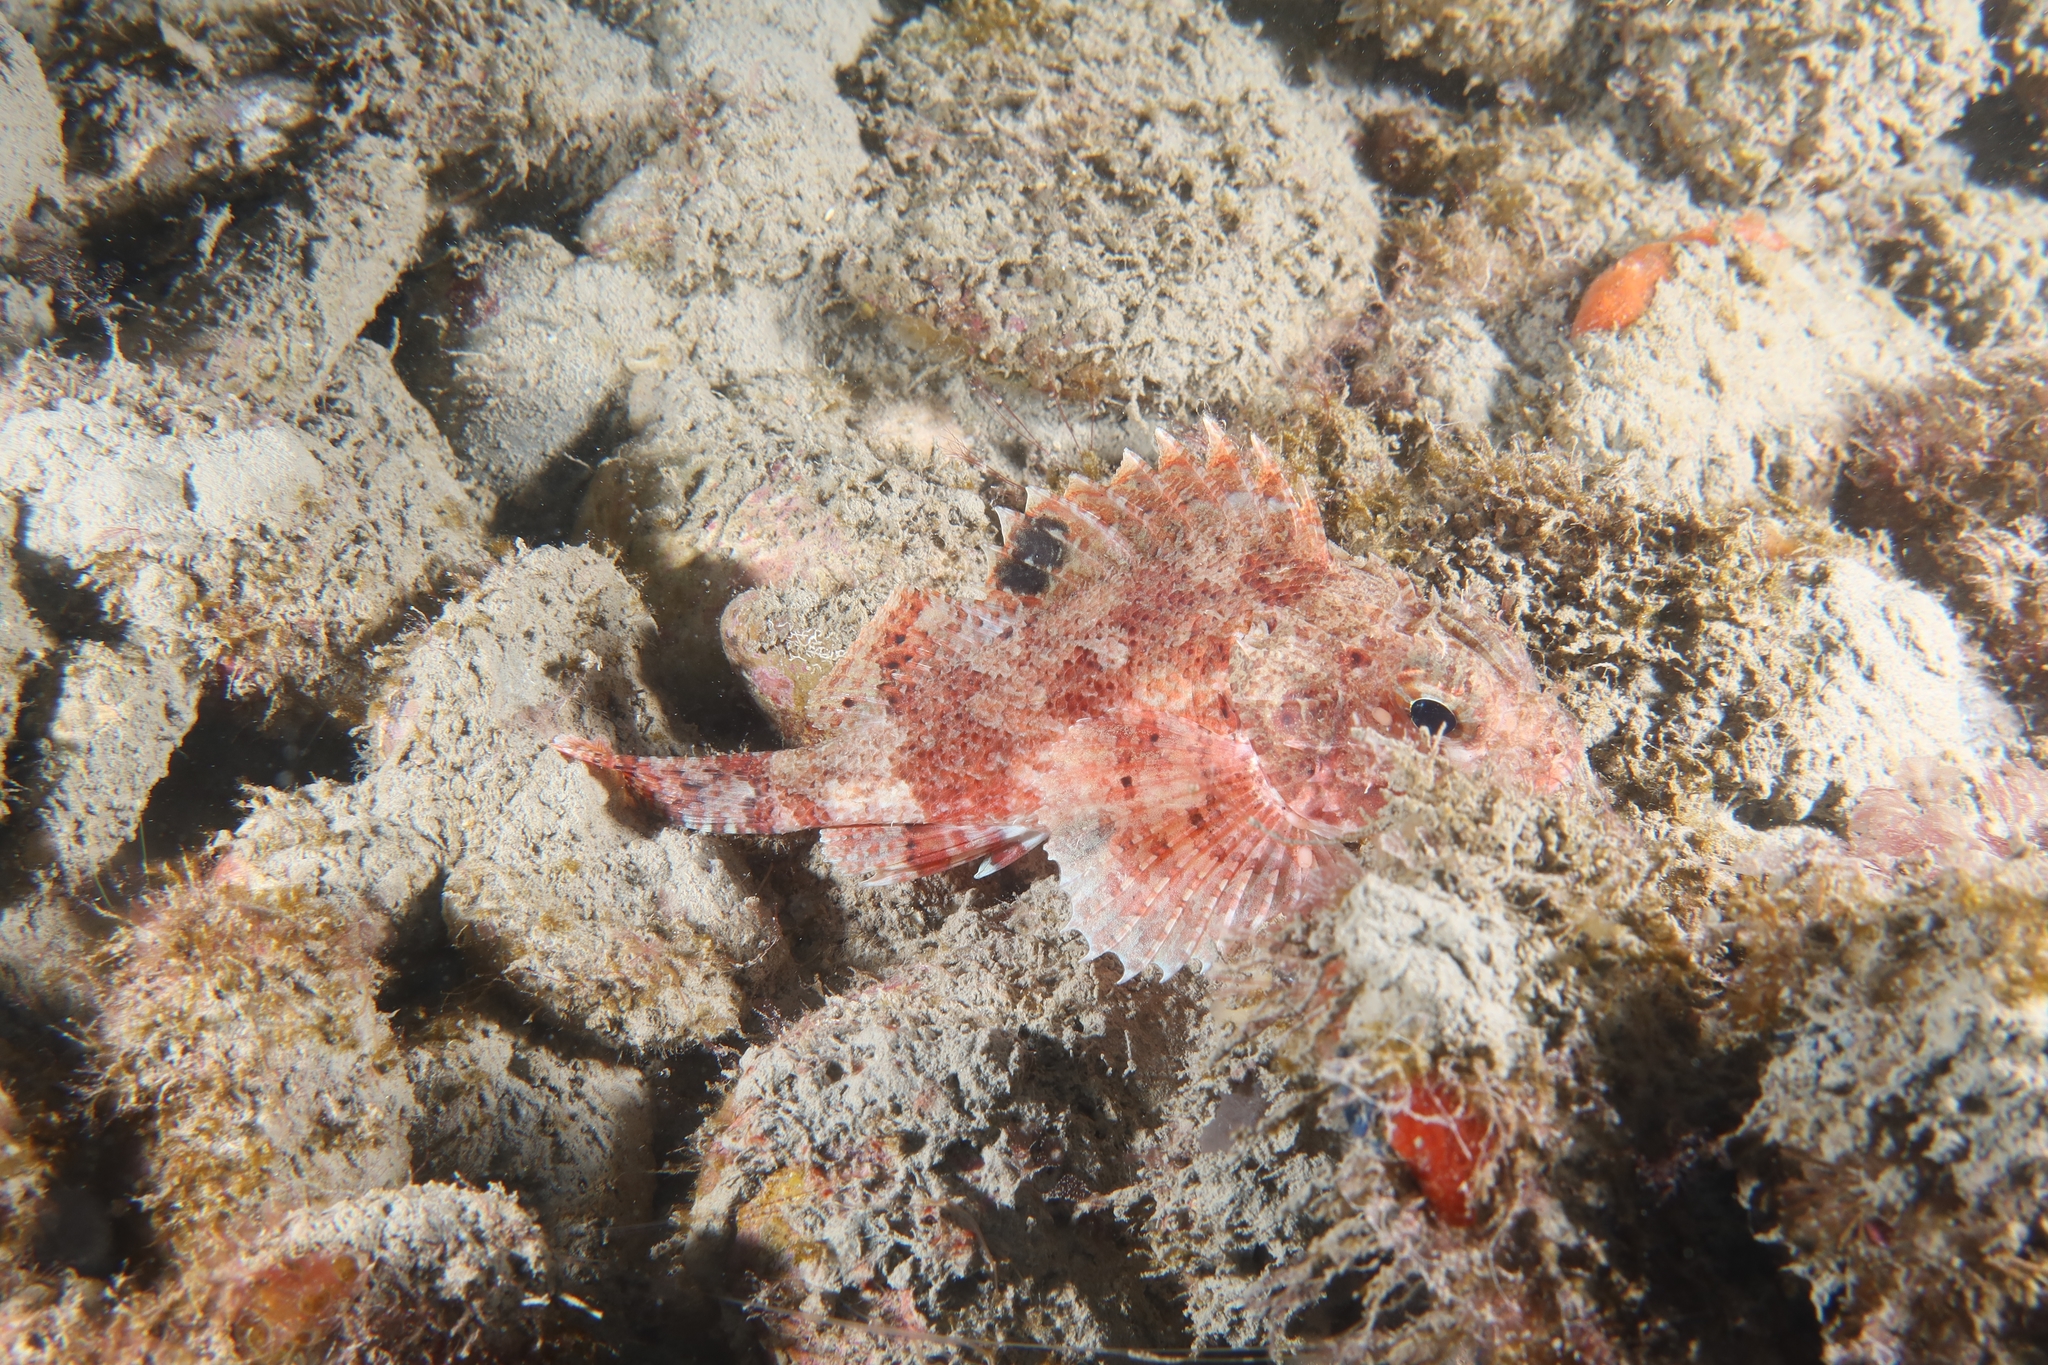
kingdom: Animalia
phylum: Chordata
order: Scorpaeniformes
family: Scorpaenidae
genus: Scorpaena
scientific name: Scorpaena notata
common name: Small red scorpionfish
